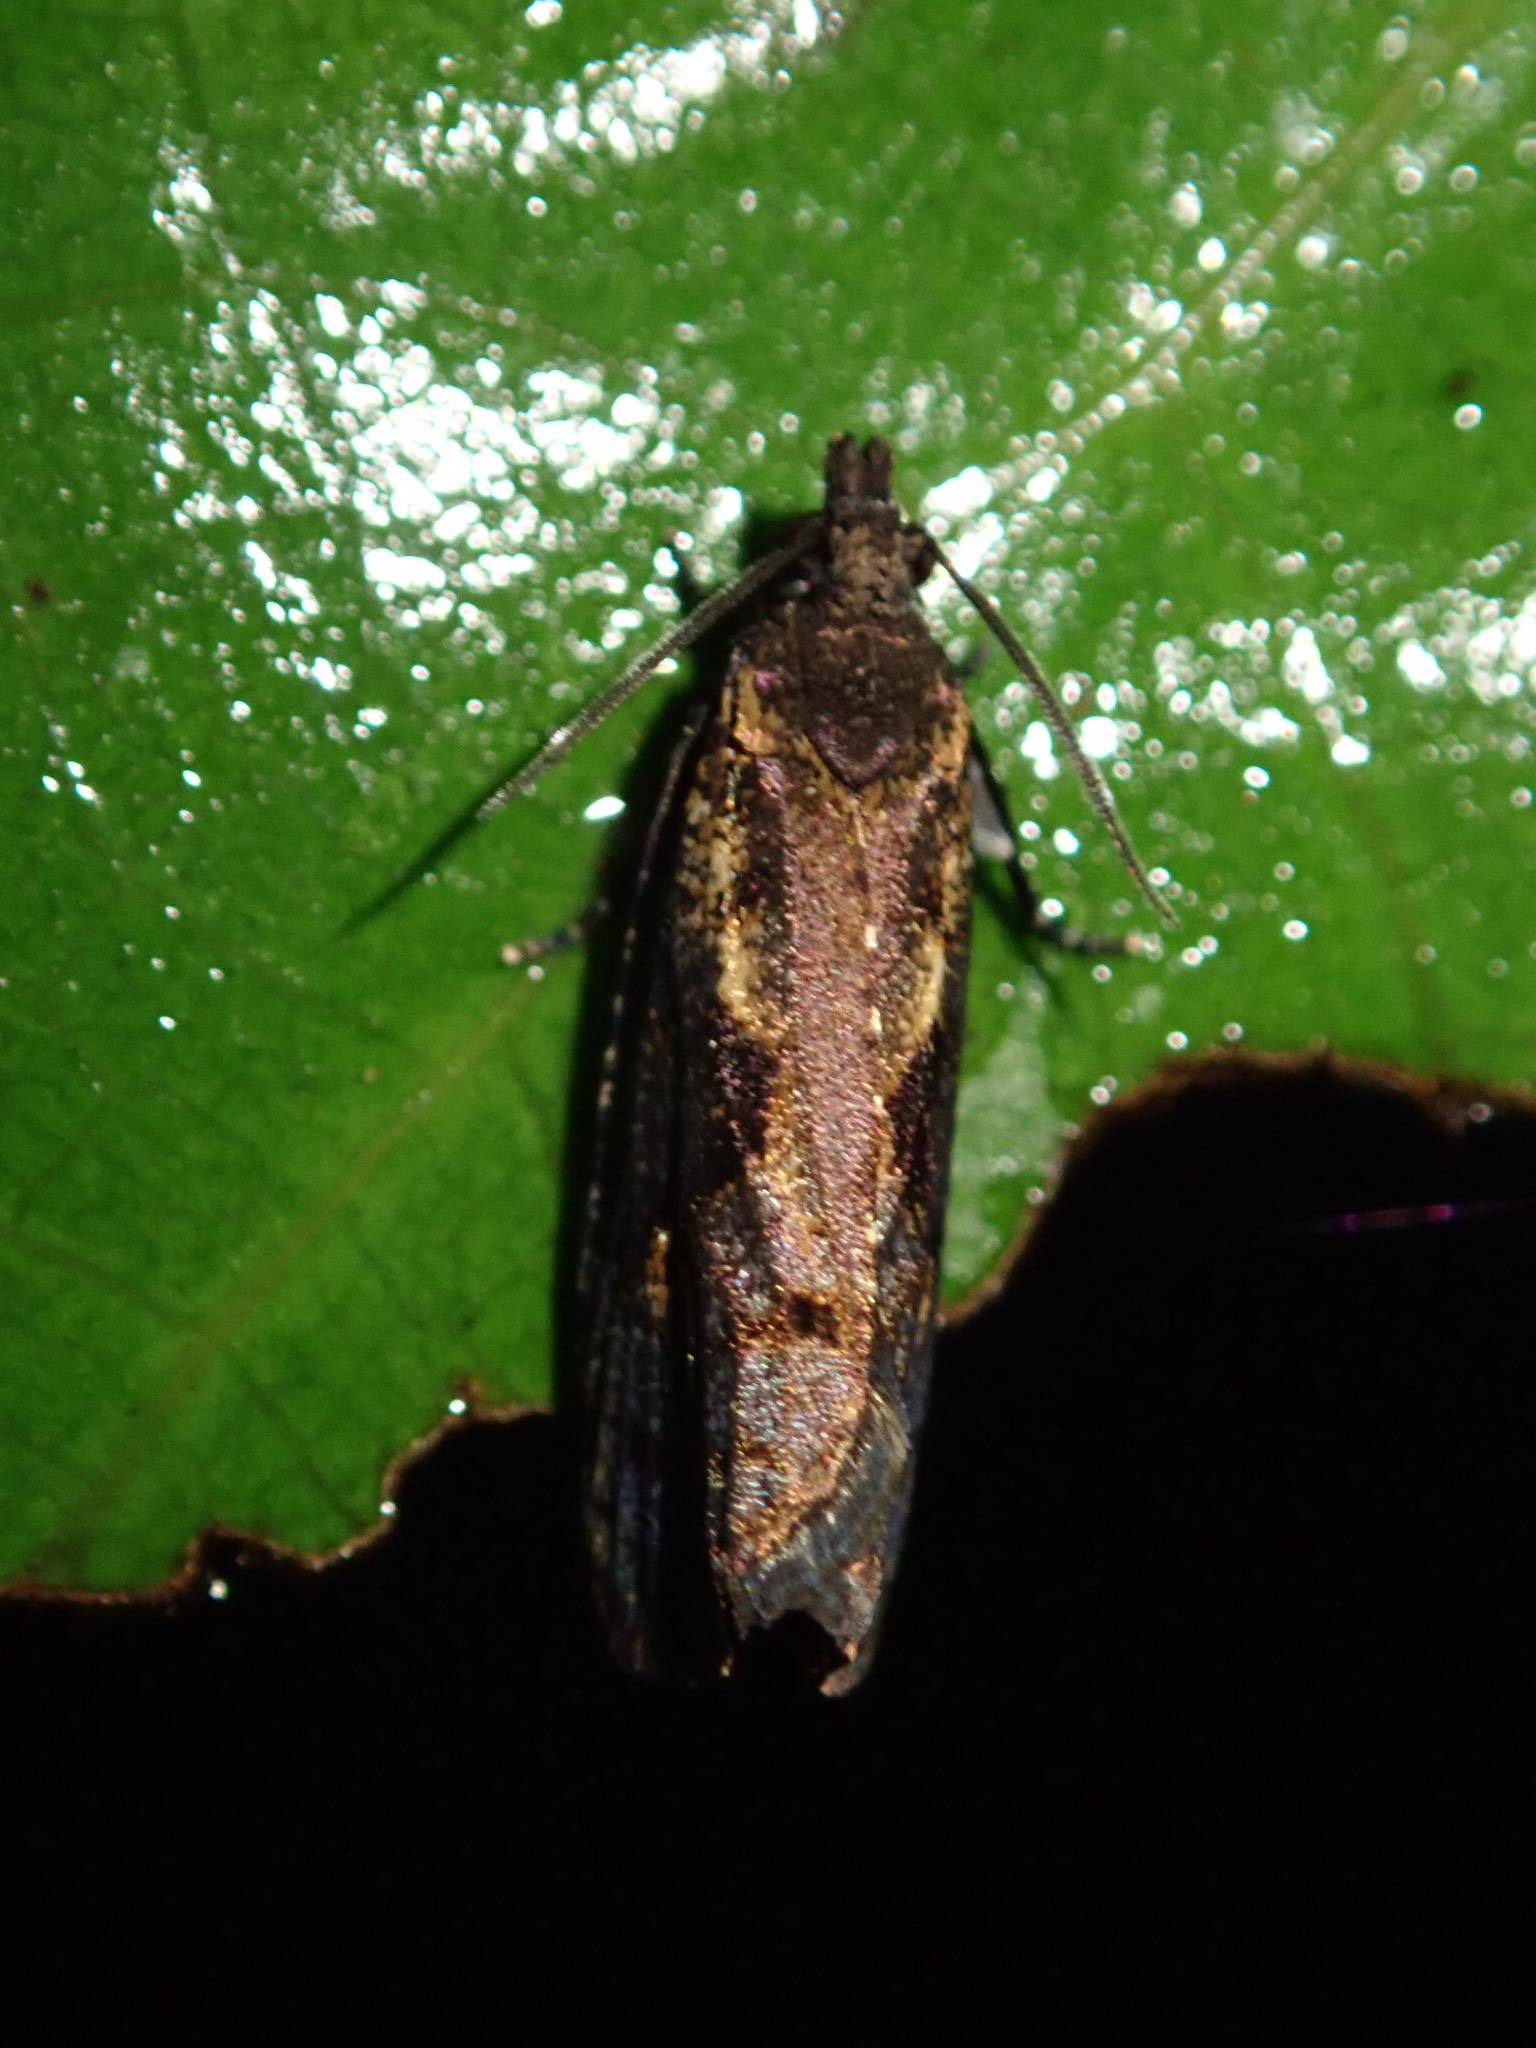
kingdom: Animalia
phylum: Arthropoda
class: Insecta
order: Lepidoptera
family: Tortricidae
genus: Cryptaspasma
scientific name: Cryptaspasma querula
